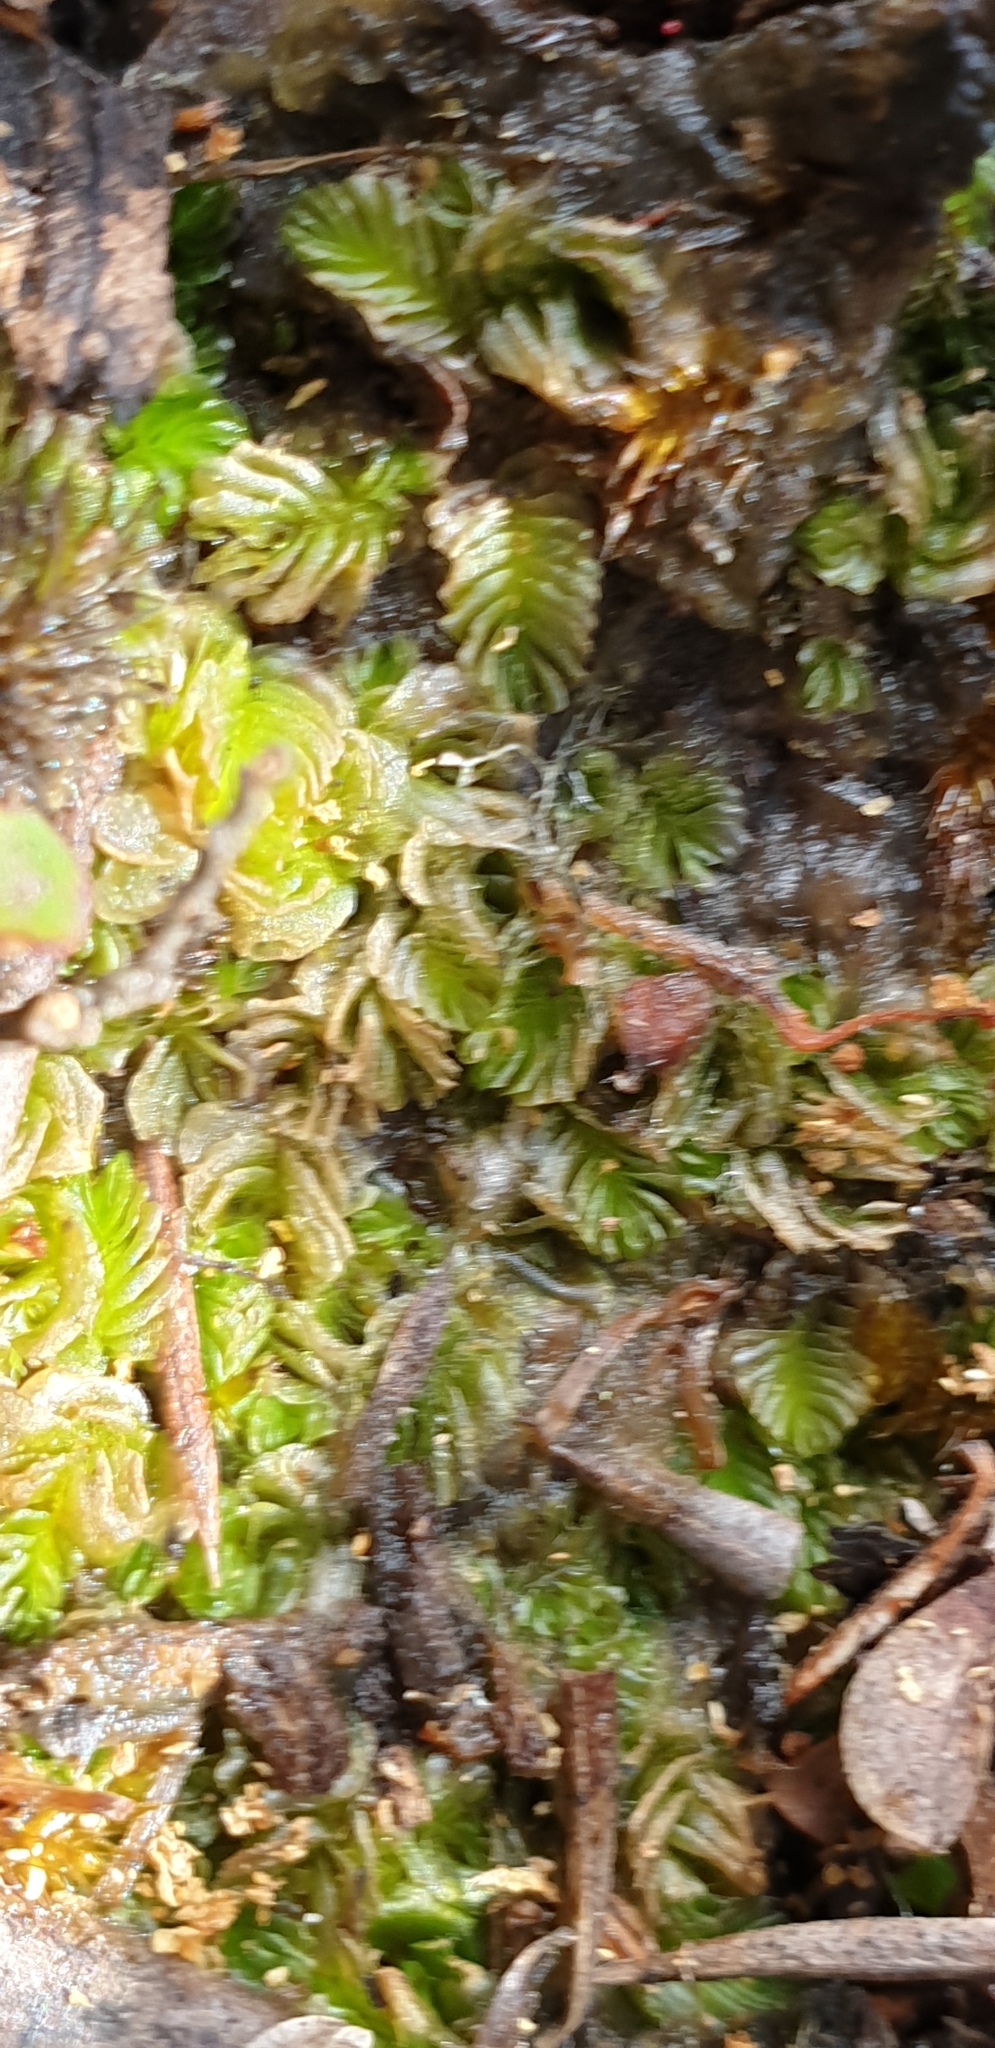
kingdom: Plantae
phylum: Marchantiophyta
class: Jungermanniopsida
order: Jungermanniales
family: Acrobolbaceae
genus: Lethocolea
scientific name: Lethocolea pansa
